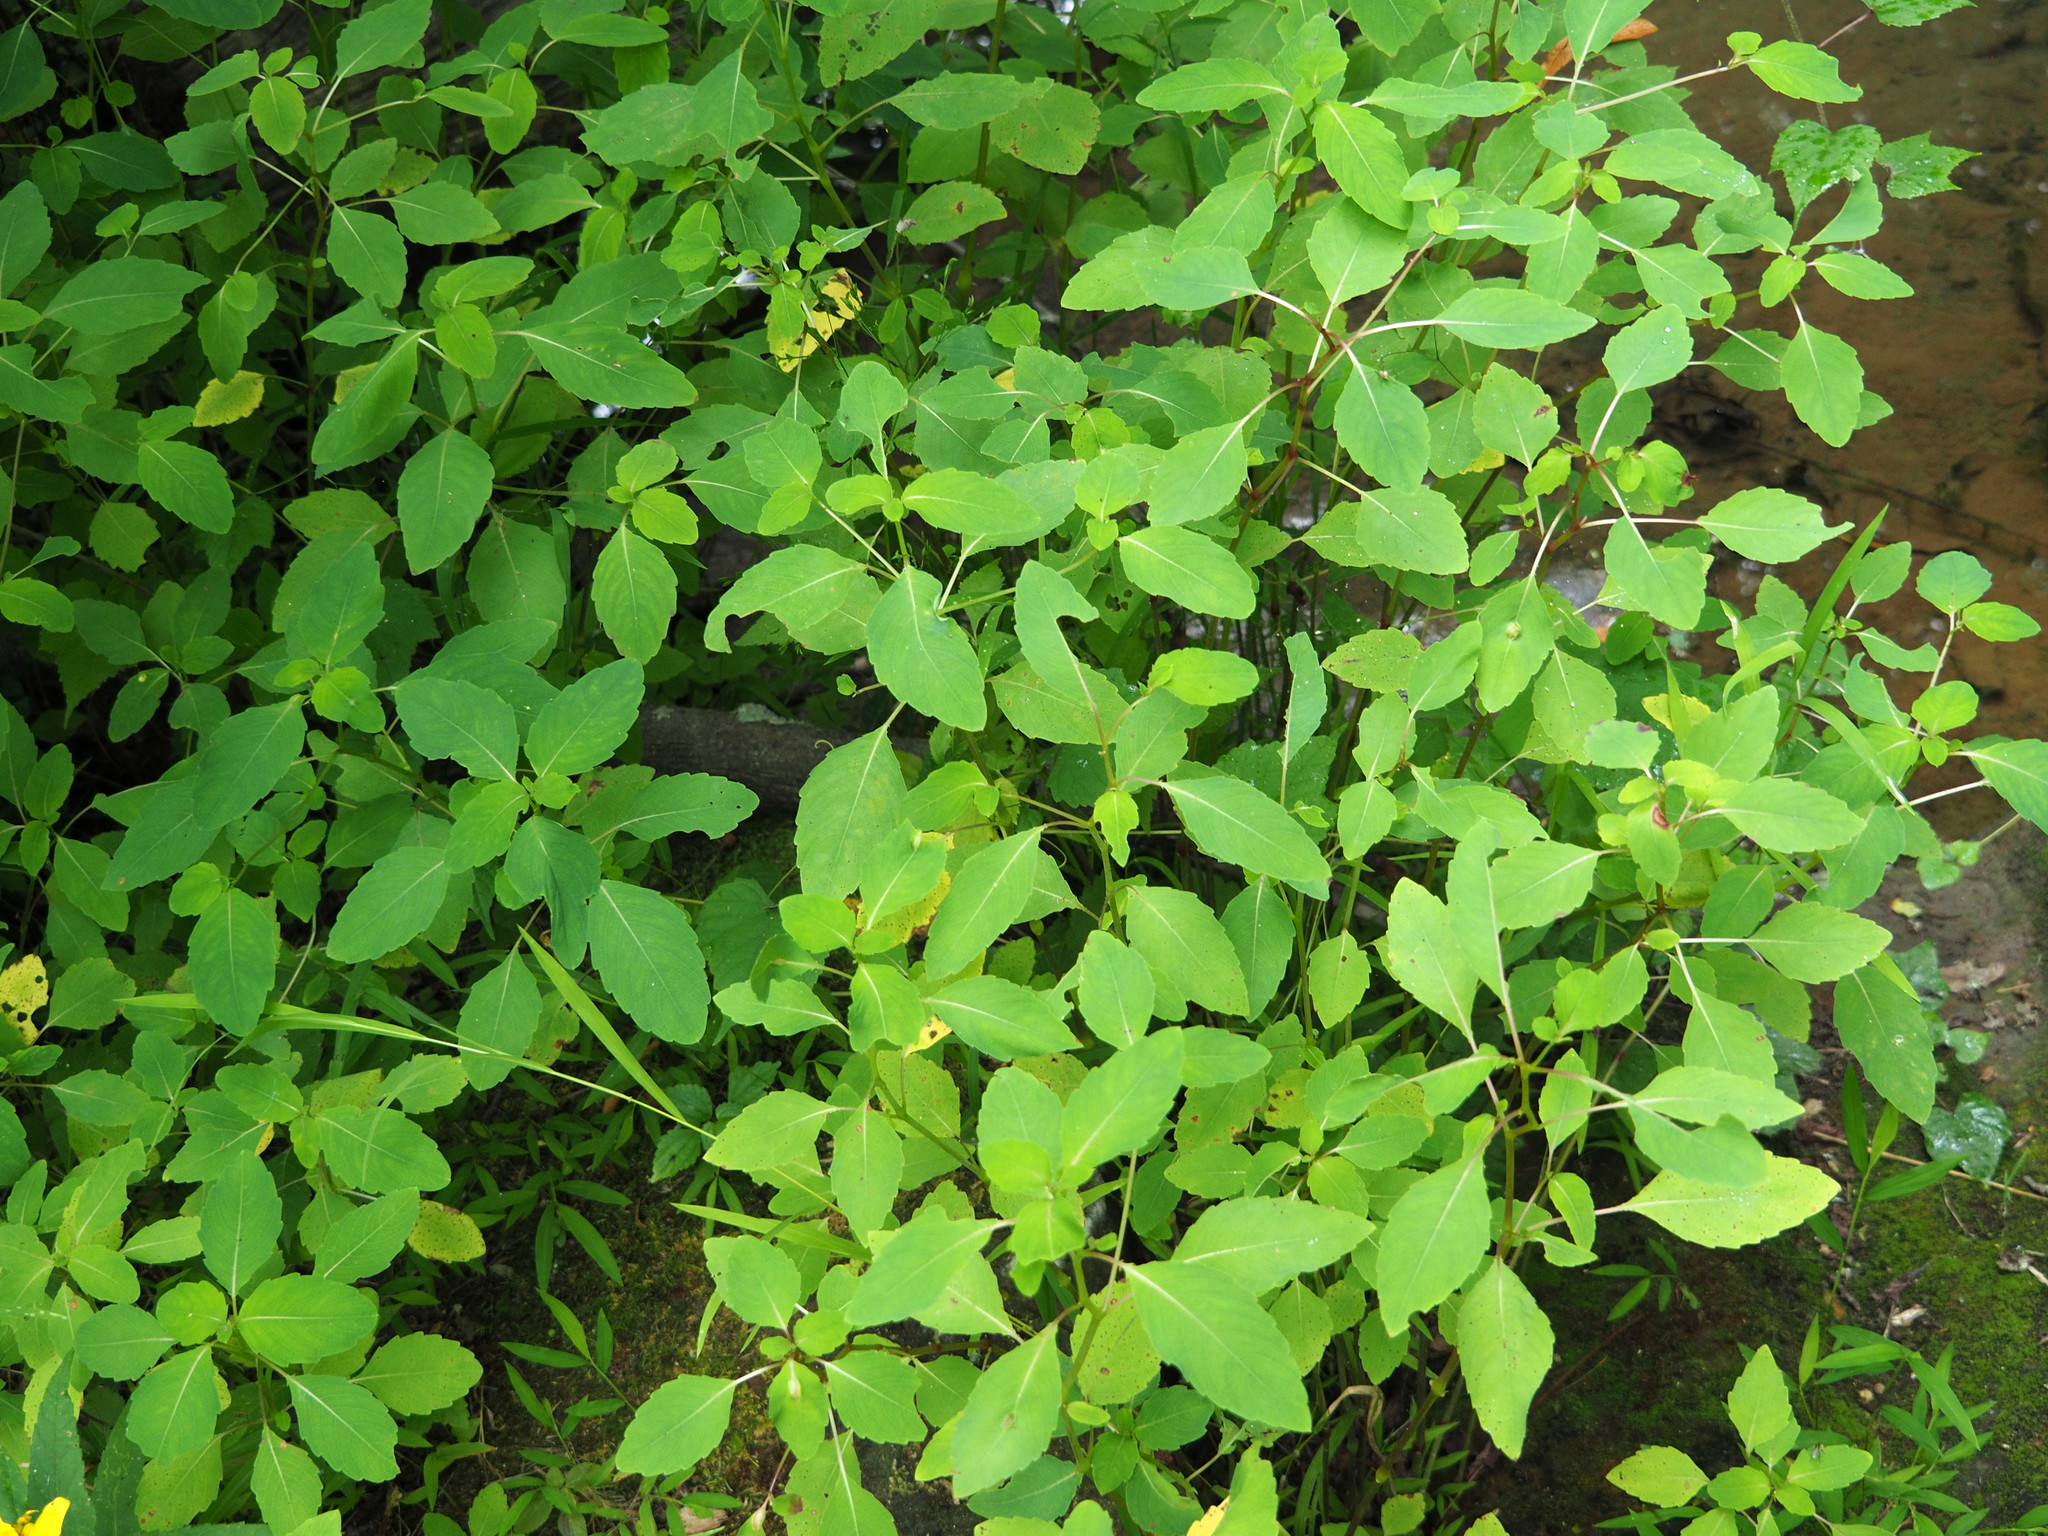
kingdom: Plantae
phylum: Tracheophyta
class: Magnoliopsida
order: Ericales
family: Balsaminaceae
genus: Impatiens
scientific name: Impatiens capensis
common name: Orange balsam
